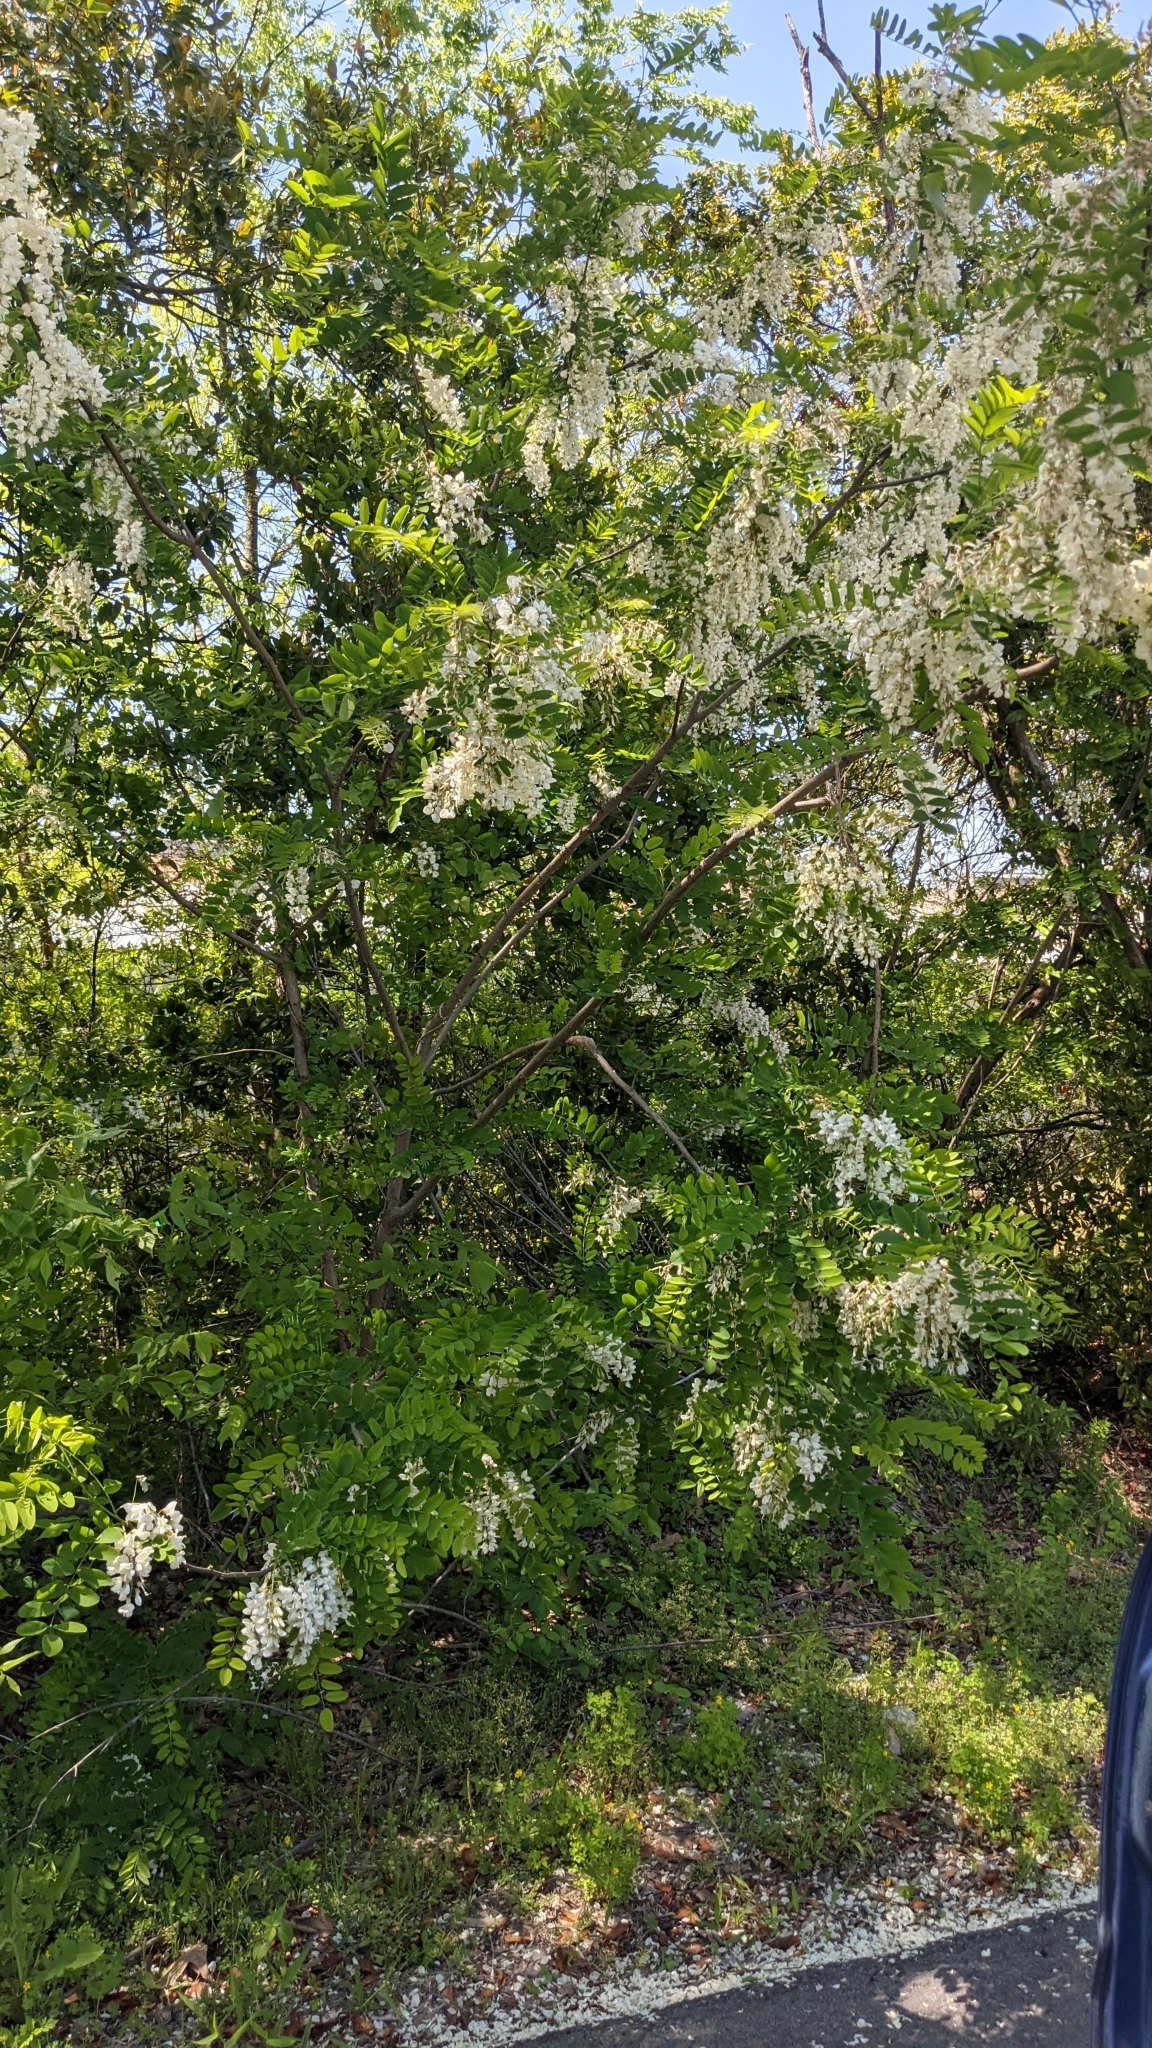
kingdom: Plantae
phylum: Tracheophyta
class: Magnoliopsida
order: Fabales
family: Fabaceae
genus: Robinia
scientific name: Robinia pseudoacacia
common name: Black locust
